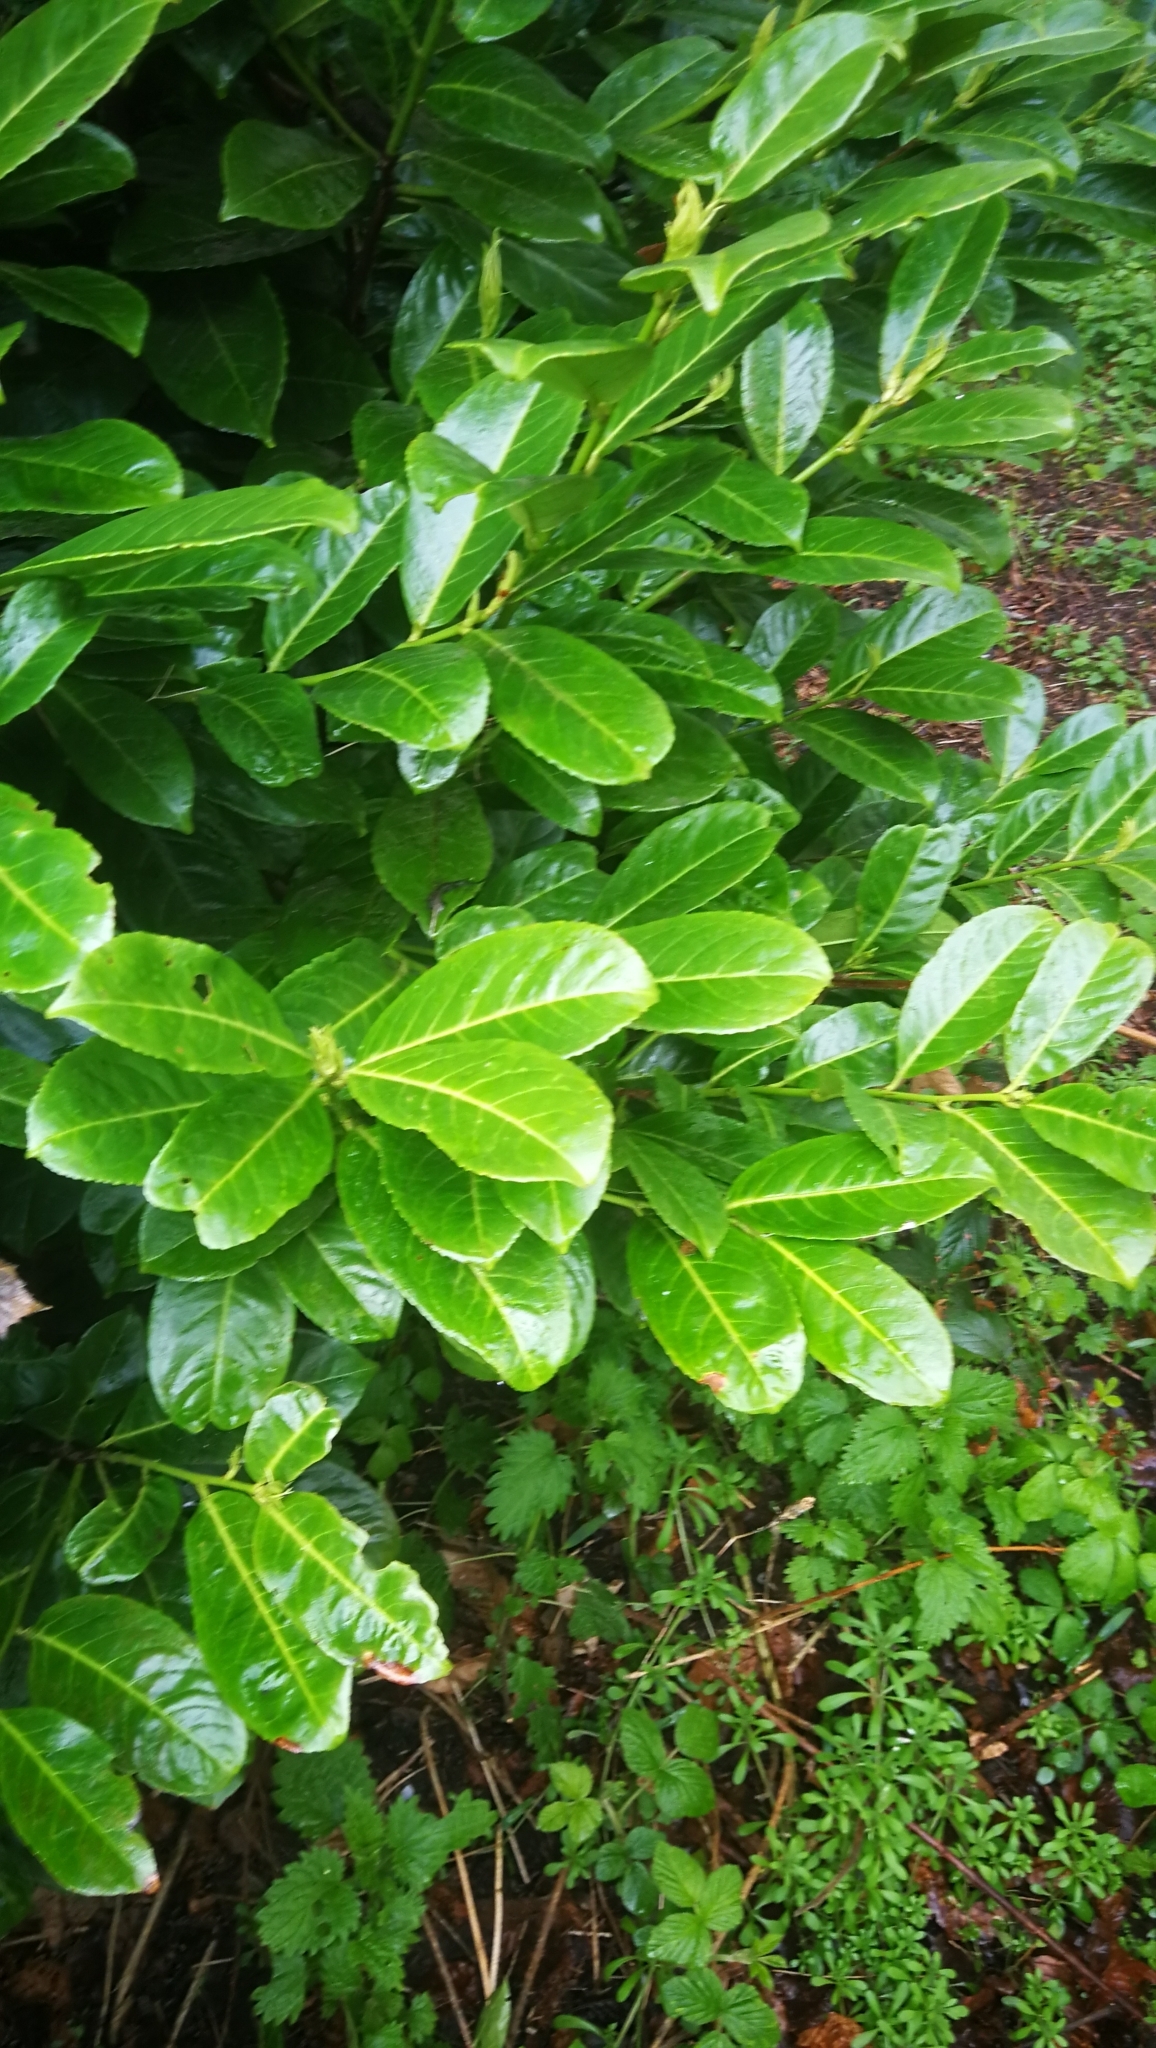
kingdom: Plantae
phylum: Tracheophyta
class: Magnoliopsida
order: Rosales
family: Rosaceae
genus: Prunus
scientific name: Prunus laurocerasus
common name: Cherry laurel
